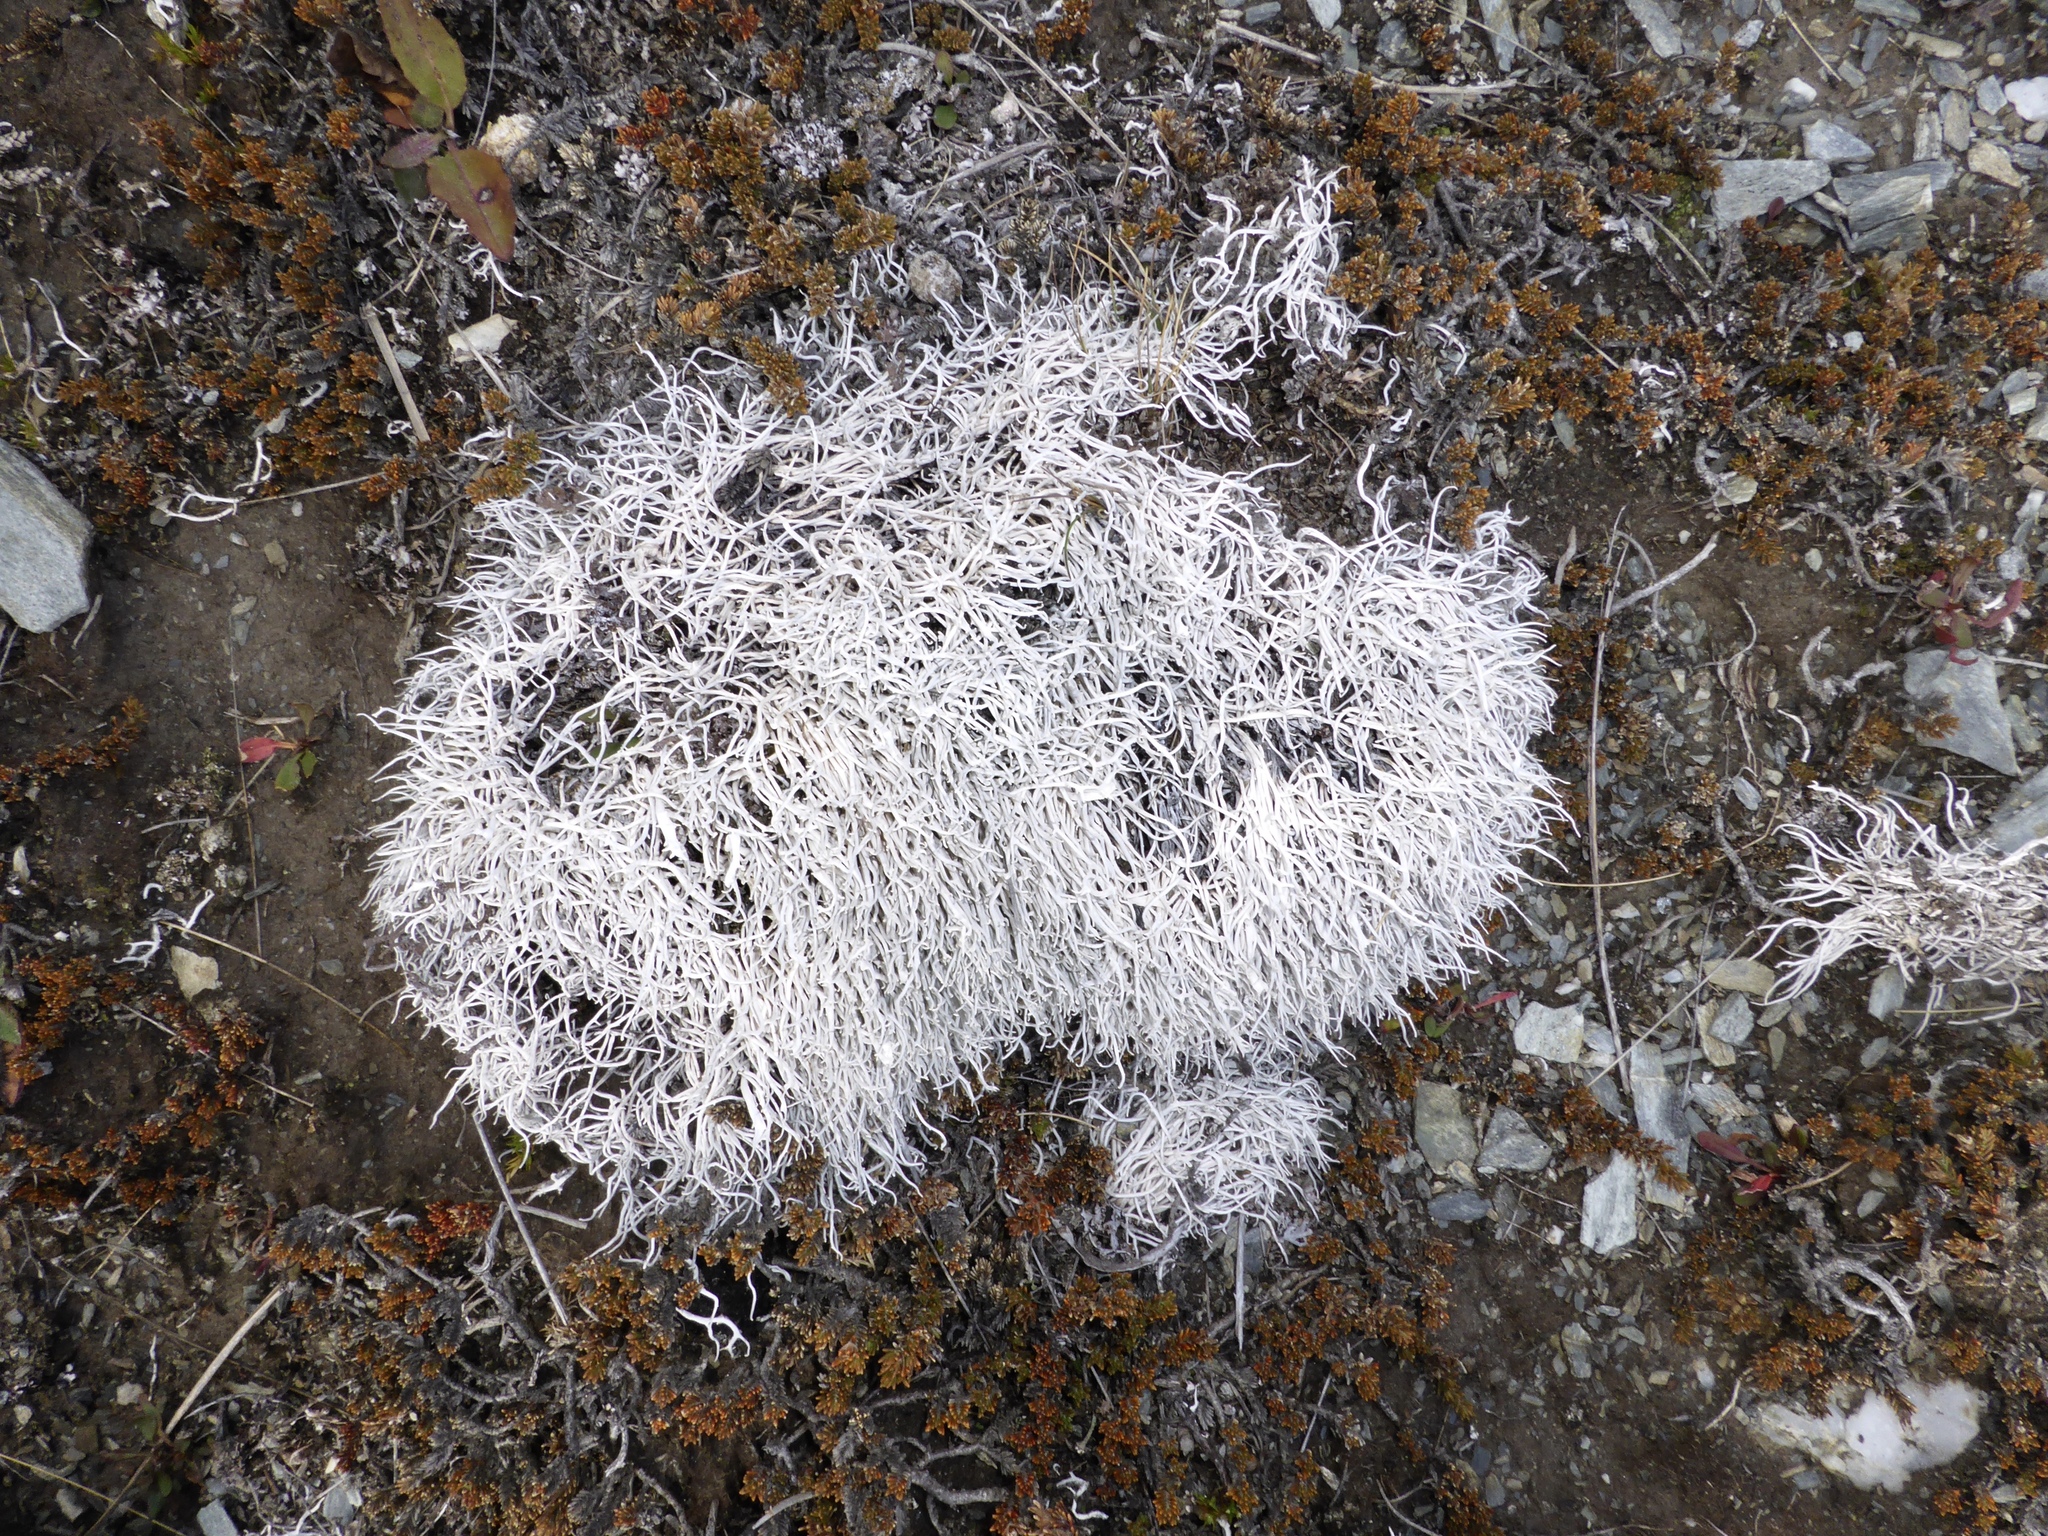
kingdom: Fungi
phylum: Ascomycota
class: Lecanoromycetes
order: Pertusariales
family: Icmadophilaceae
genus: Thamnolia
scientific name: Thamnolia vermicularis
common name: Whiteworm lichen
